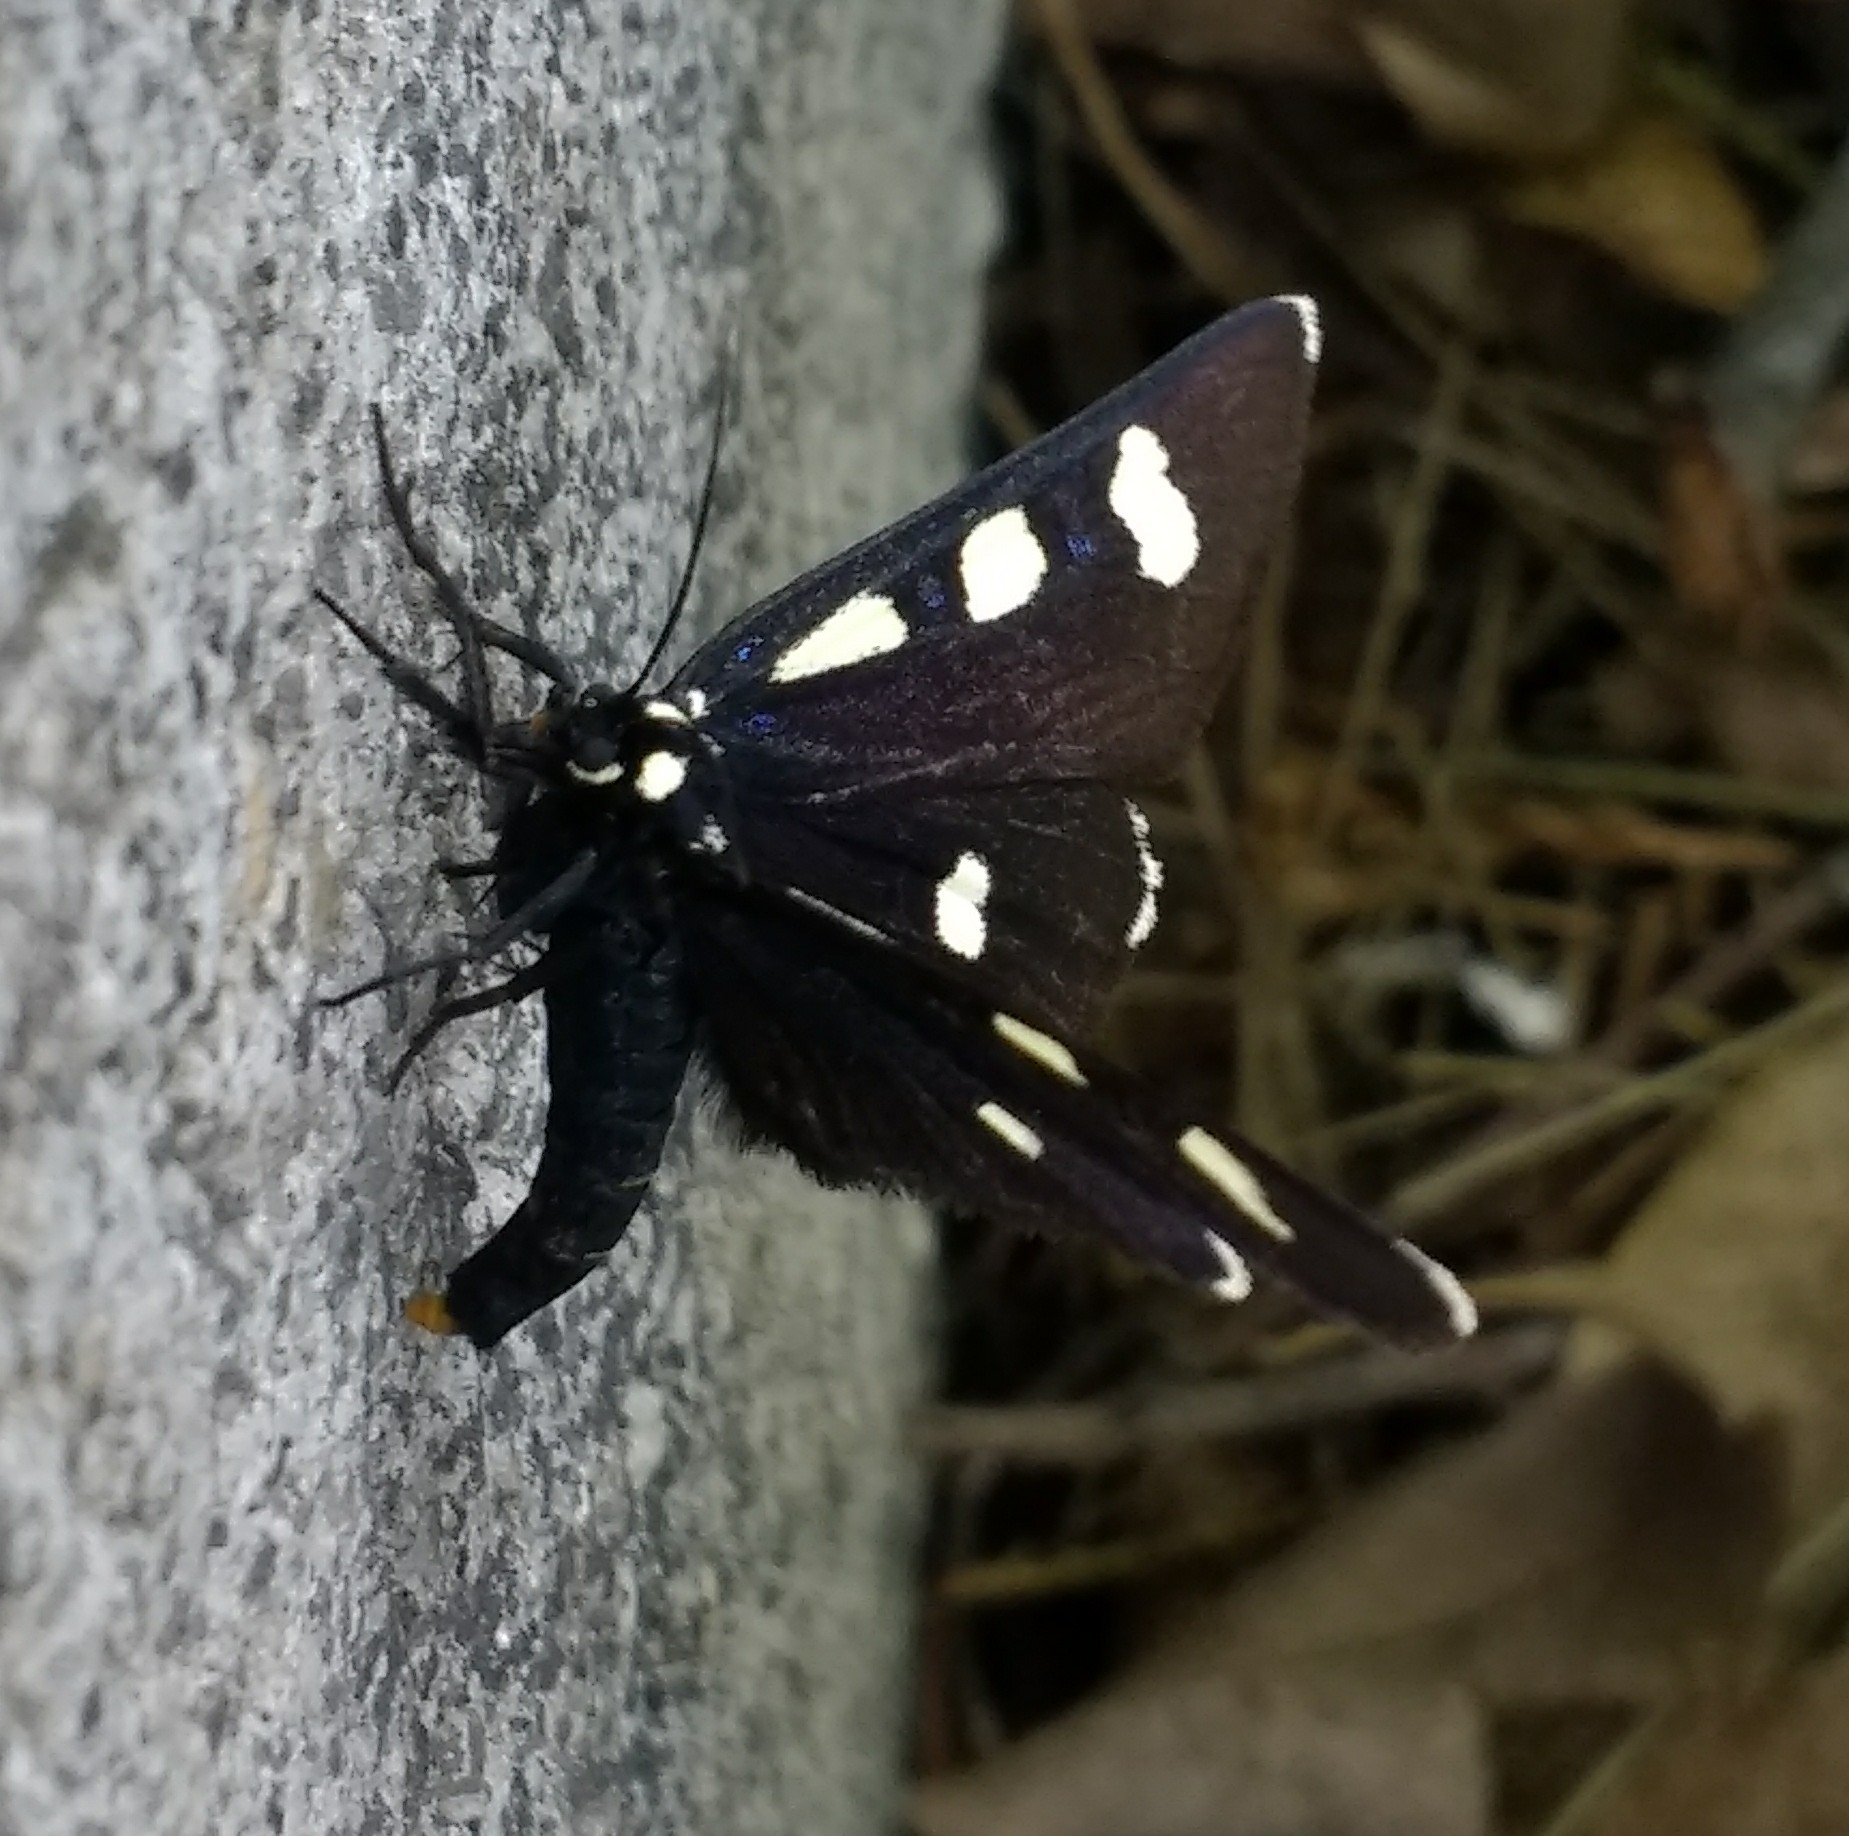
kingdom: Animalia
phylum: Arthropoda
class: Insecta
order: Lepidoptera
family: Noctuidae
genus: Alypiodes
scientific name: Alypiodes bimaculata
